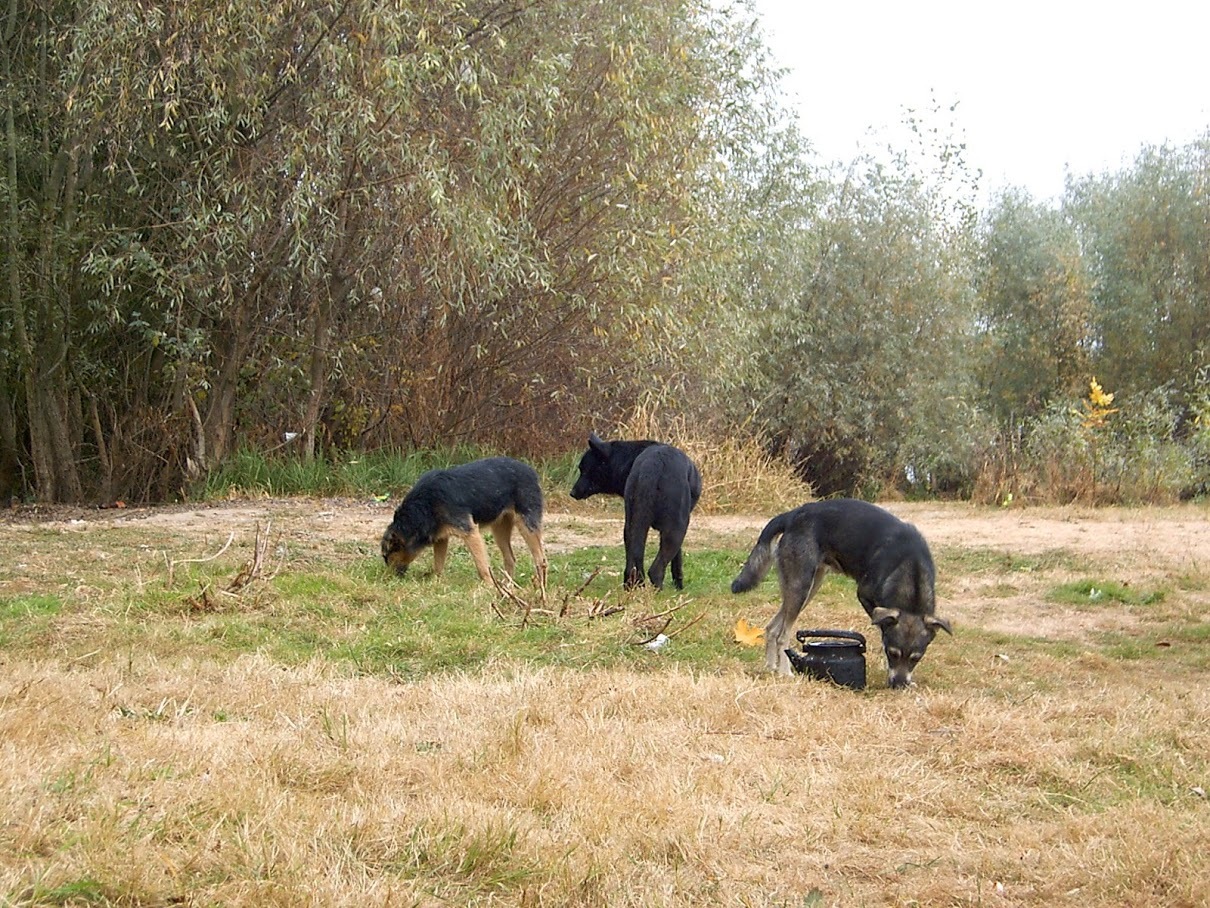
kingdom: Animalia
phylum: Chordata
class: Mammalia
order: Carnivora
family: Canidae
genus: Canis
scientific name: Canis lupus
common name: Gray wolf
